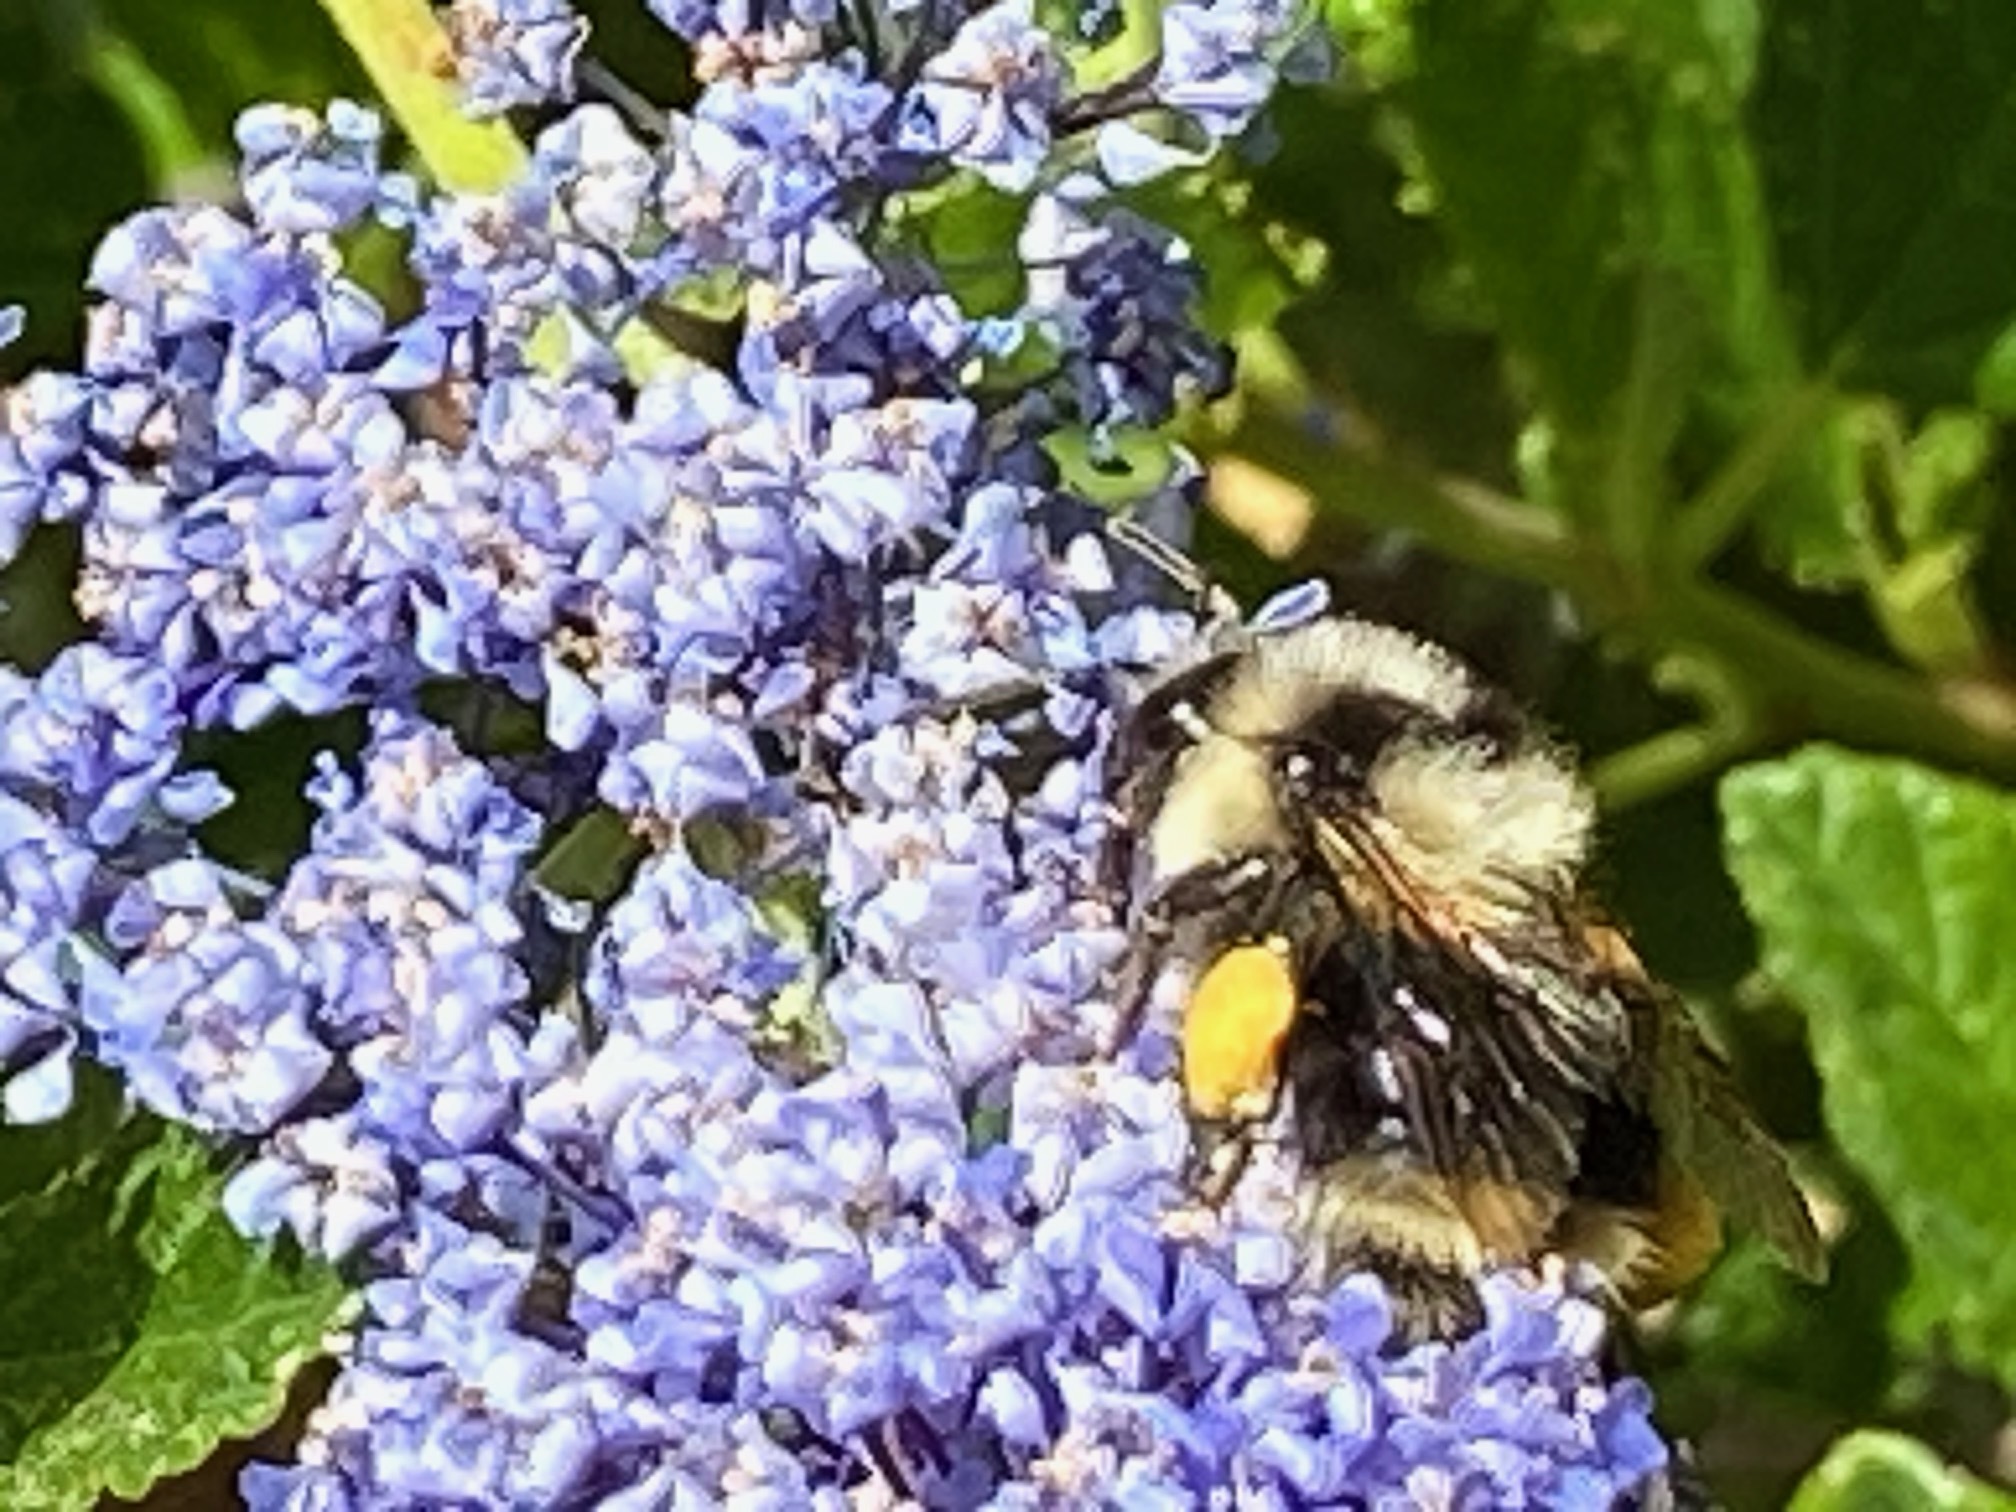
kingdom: Animalia
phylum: Arthropoda
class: Insecta
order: Hymenoptera
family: Apidae
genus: Bombus
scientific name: Bombus melanopygus
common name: Black tail bumble bee
